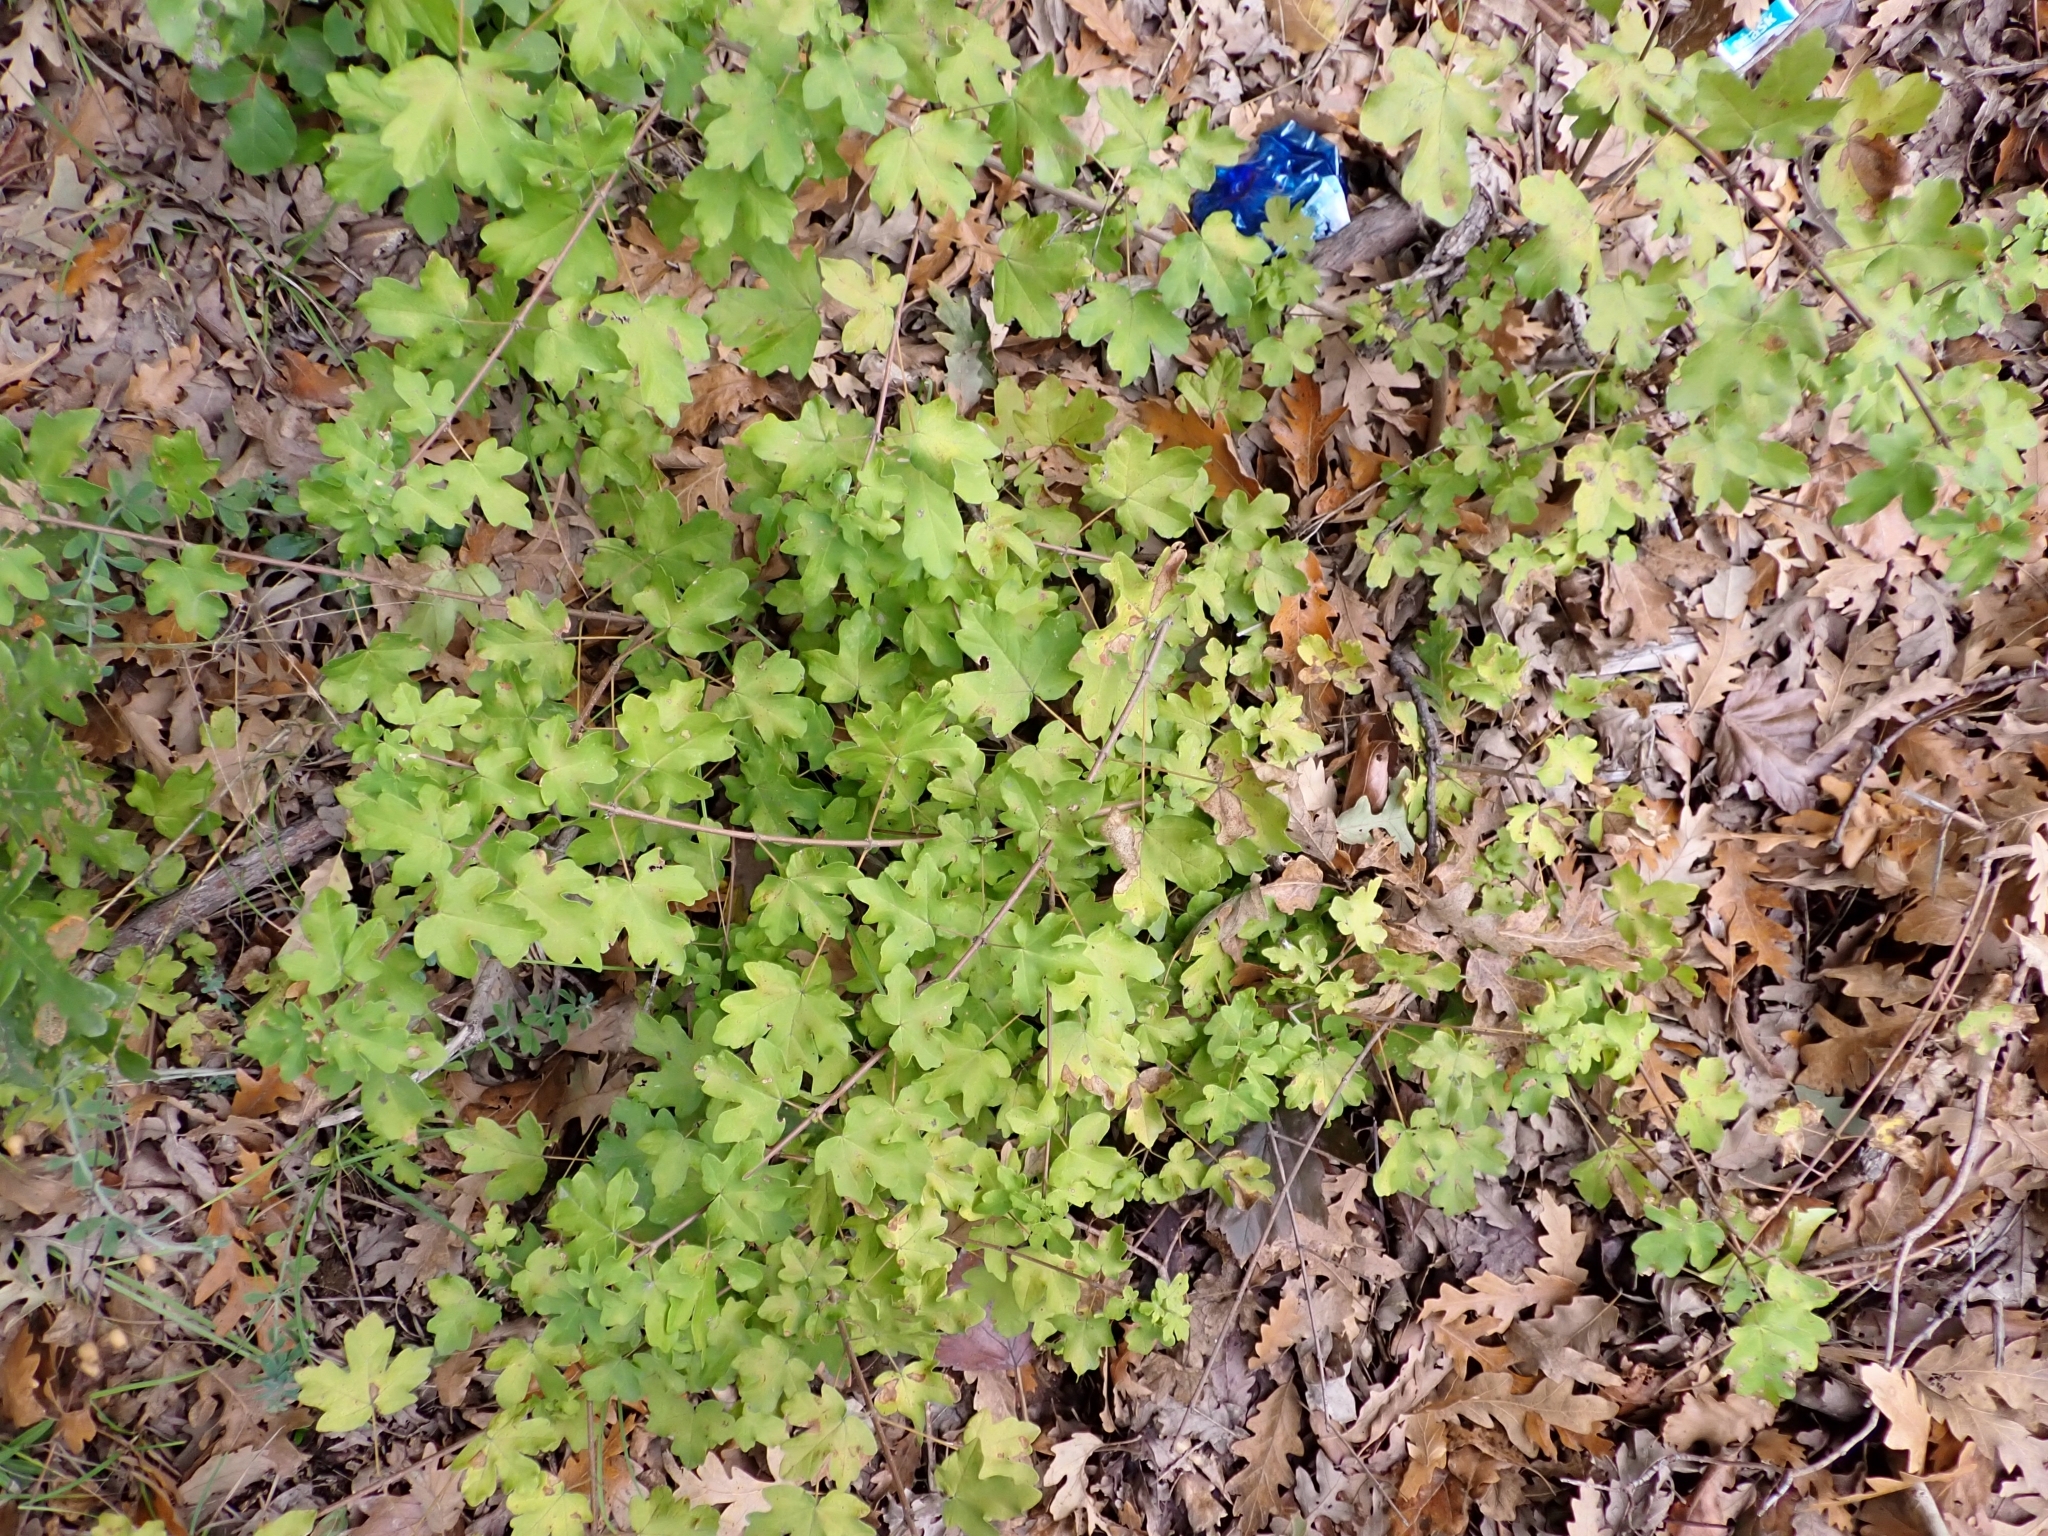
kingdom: Plantae
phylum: Tracheophyta
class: Magnoliopsida
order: Sapindales
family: Sapindaceae
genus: Acer
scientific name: Acer campestre
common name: Field maple
